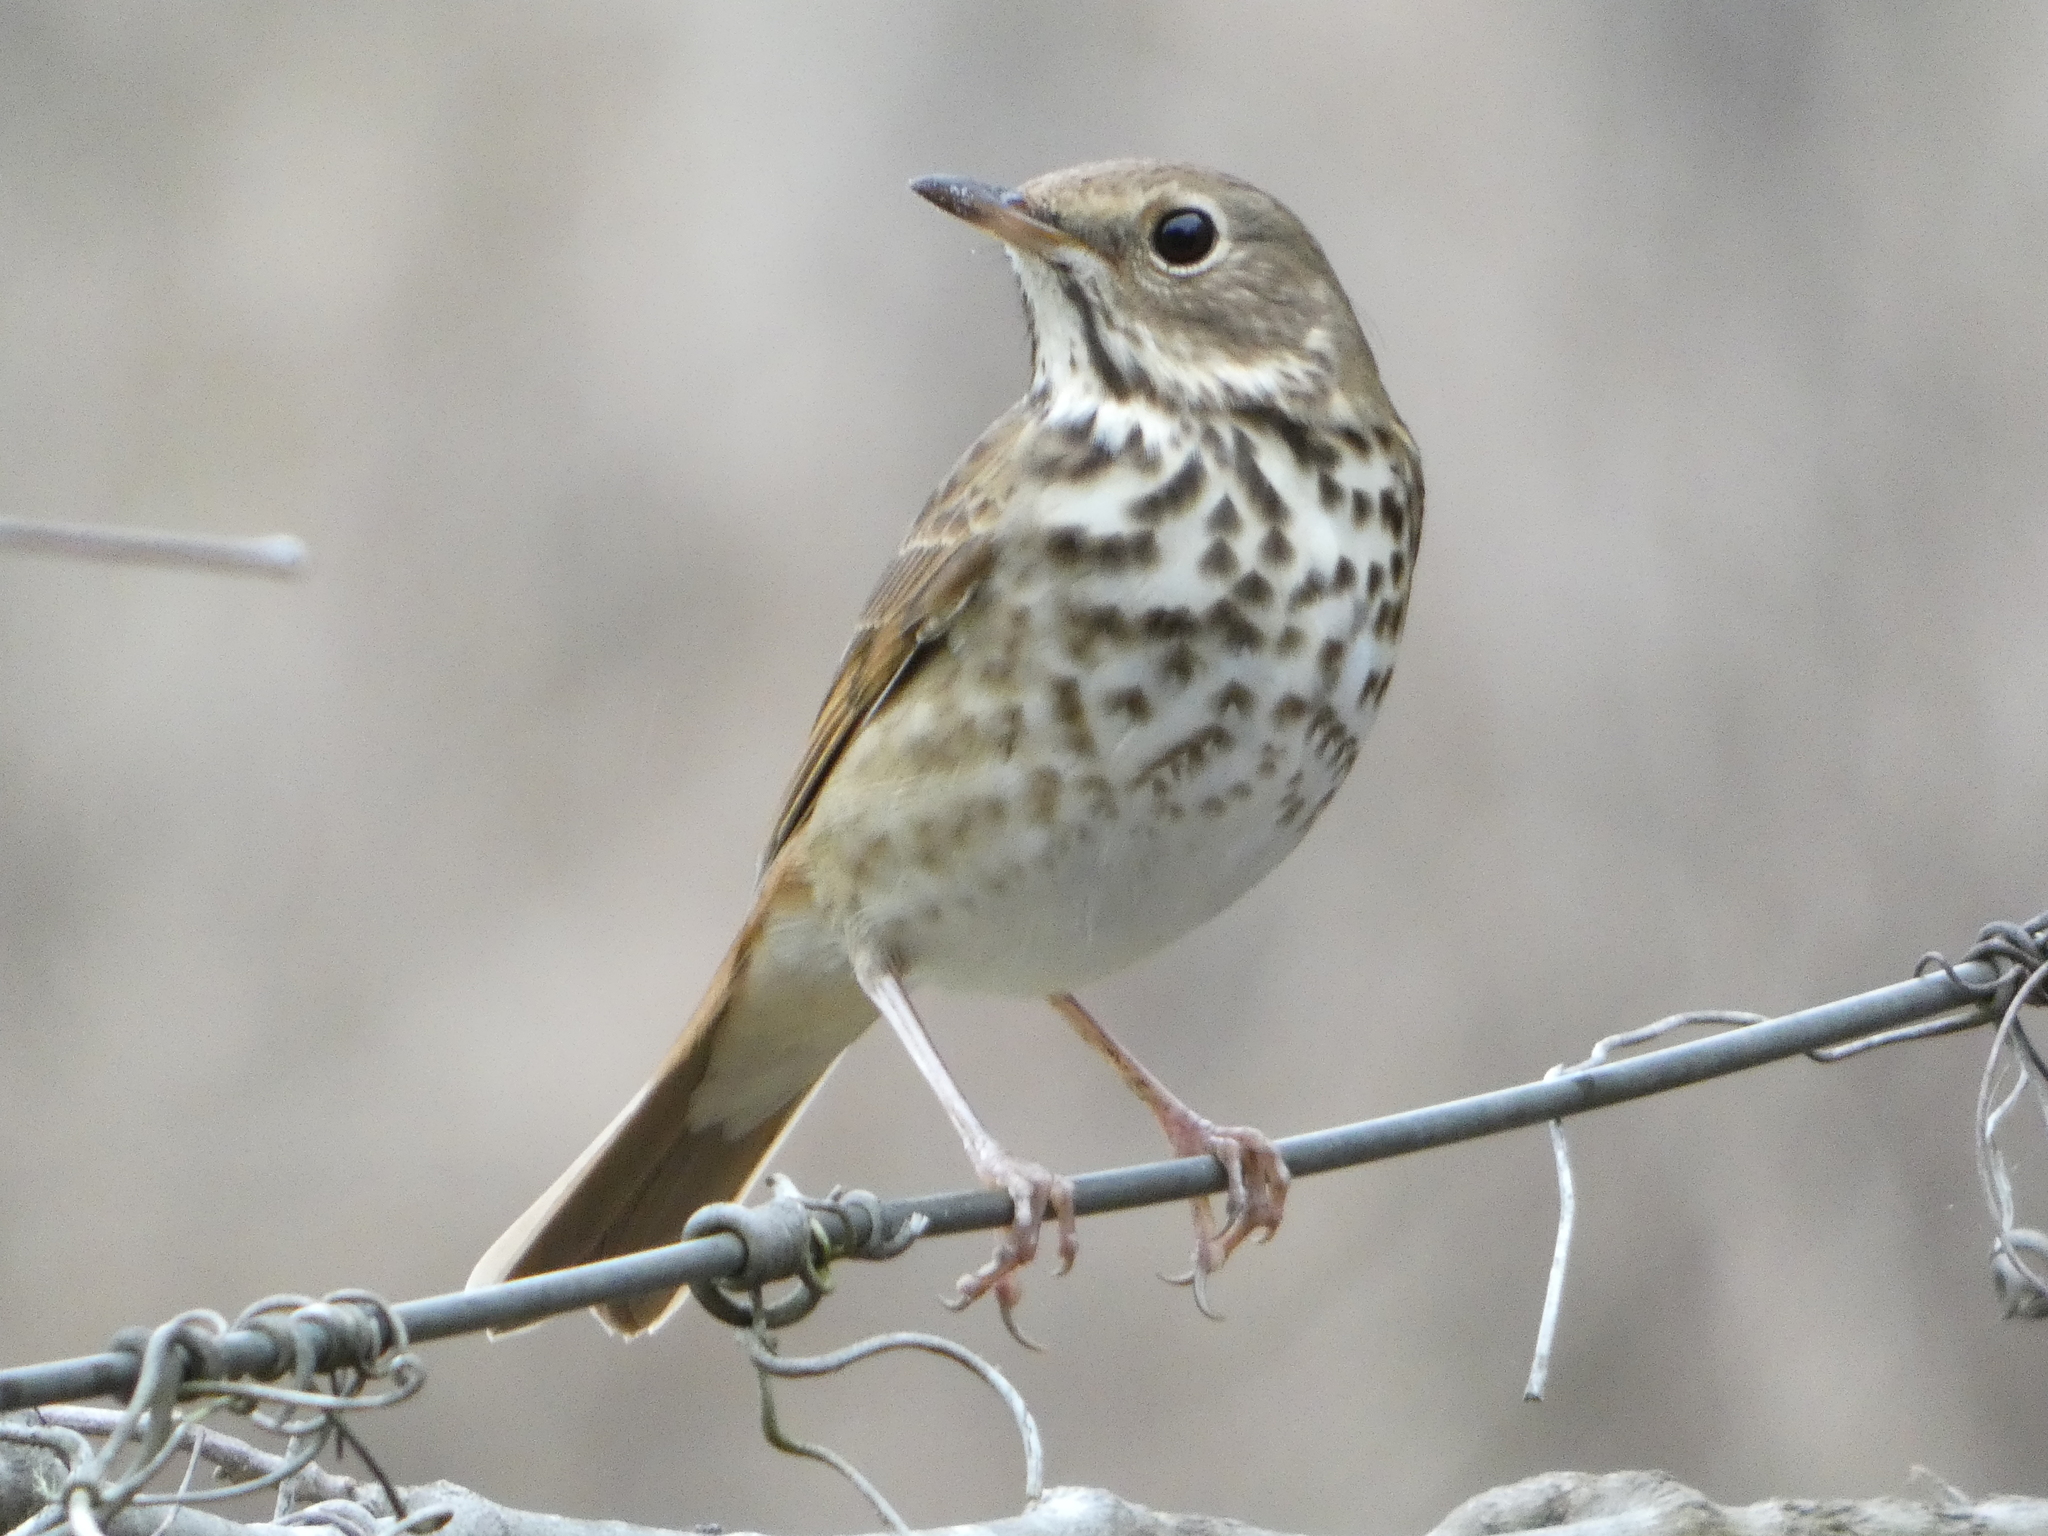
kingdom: Animalia
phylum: Chordata
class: Aves
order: Passeriformes
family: Turdidae
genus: Catharus
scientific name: Catharus guttatus
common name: Hermit thrush
